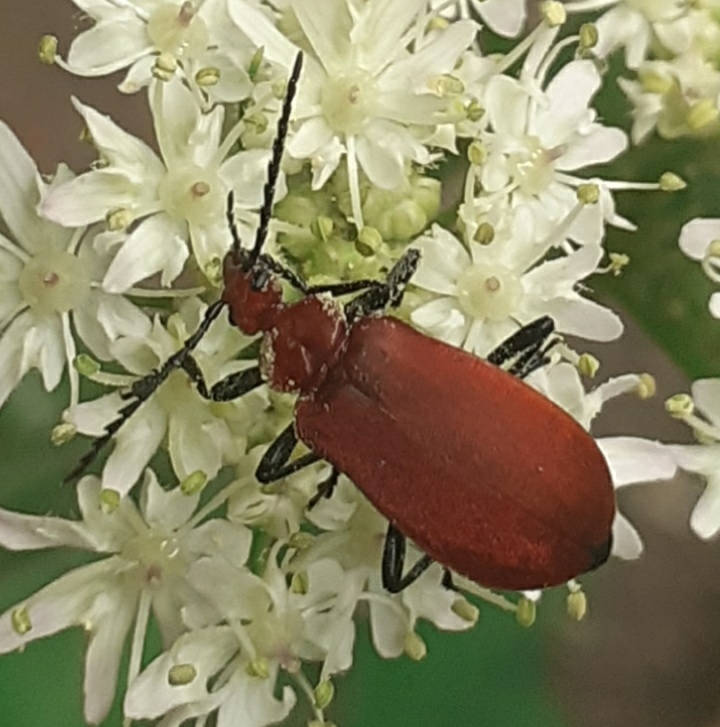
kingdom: Animalia
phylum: Arthropoda
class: Insecta
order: Coleoptera
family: Pyrochroidae
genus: Pyrochroa
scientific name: Pyrochroa serraticornis
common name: Red-headed cardinal beetle
